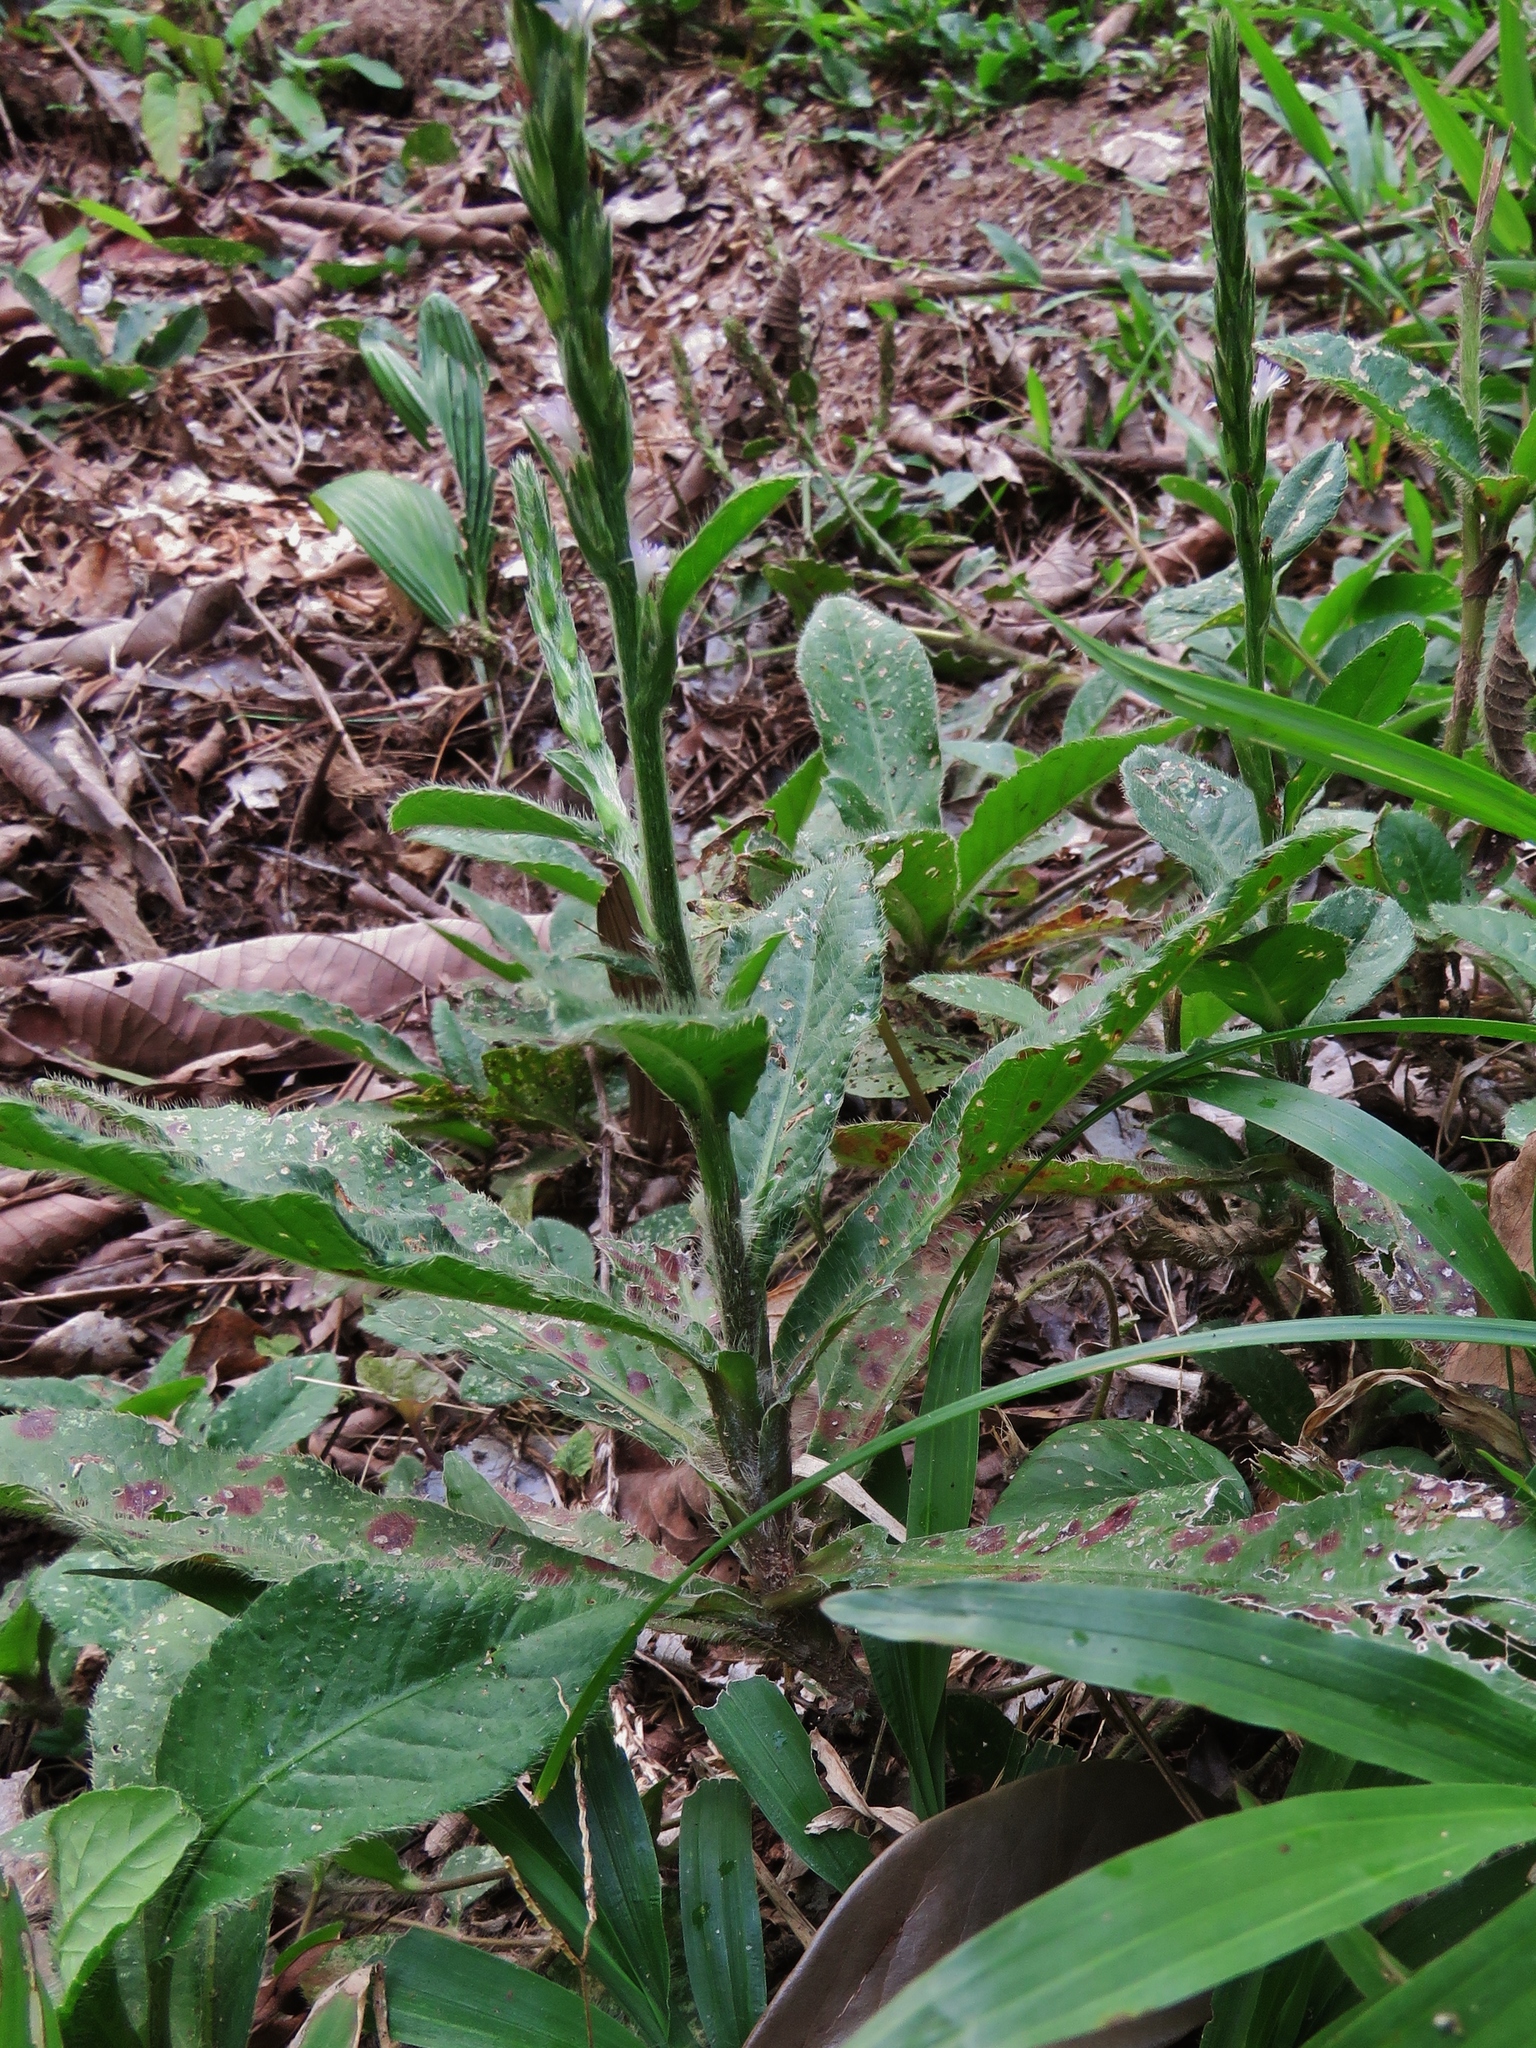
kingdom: Plantae
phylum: Tracheophyta
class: Magnoliopsida
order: Asterales
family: Asteraceae
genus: Pseudelephantopus
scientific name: Pseudelephantopus spicatus
